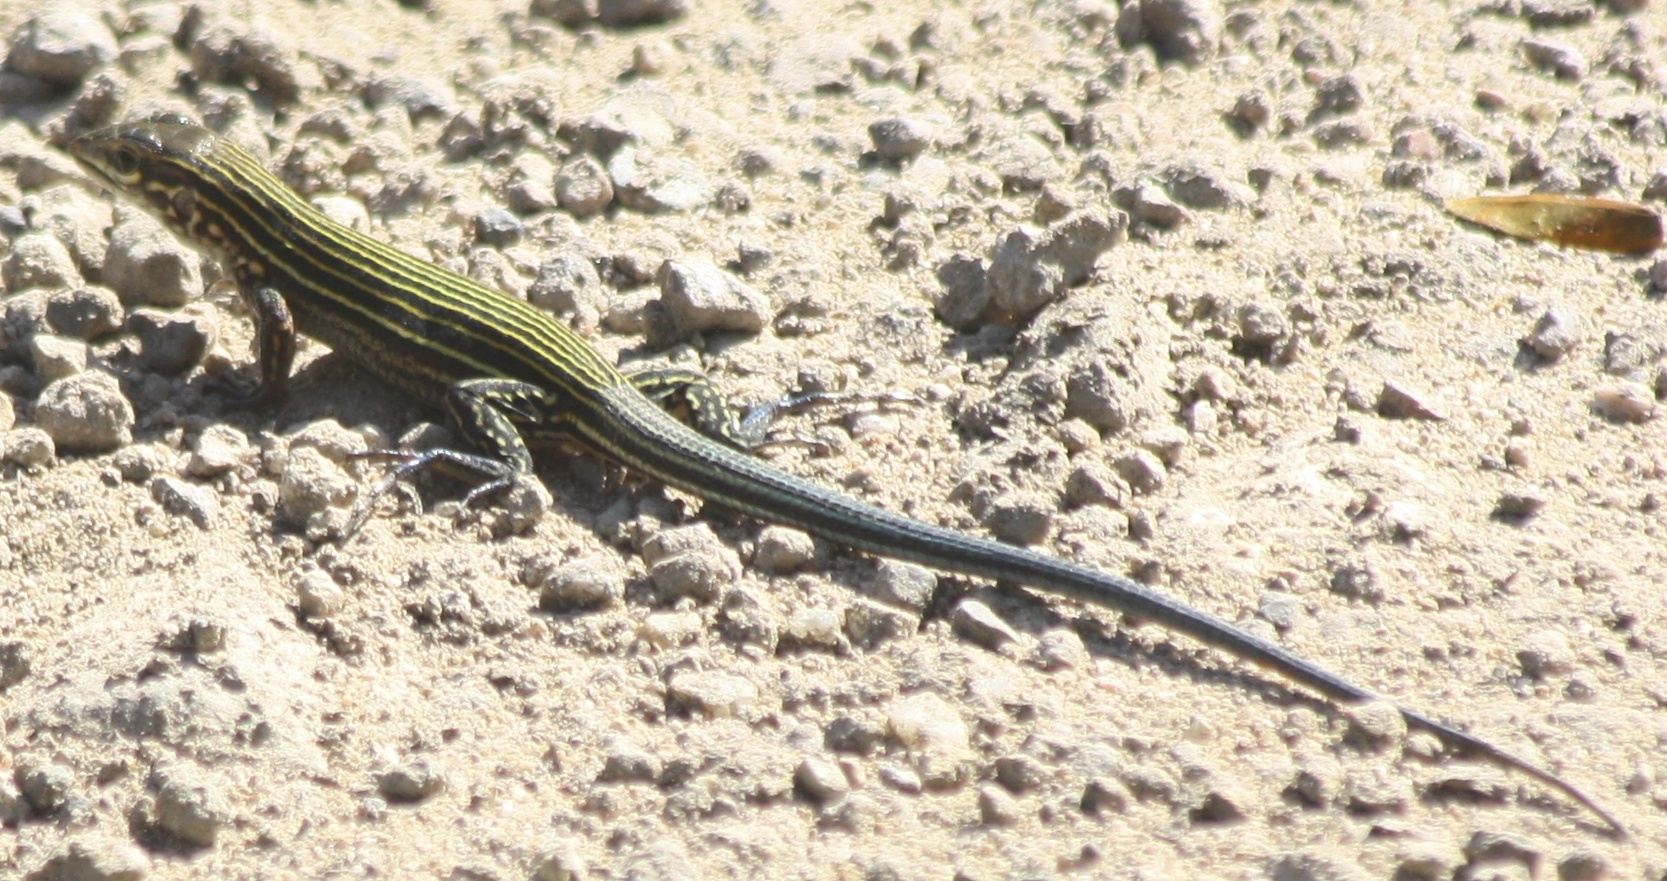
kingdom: Animalia
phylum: Chordata
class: Squamata
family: Teiidae
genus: Aspidoscelis
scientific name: Aspidoscelis lineattissimus
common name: Many-lined whiptail
